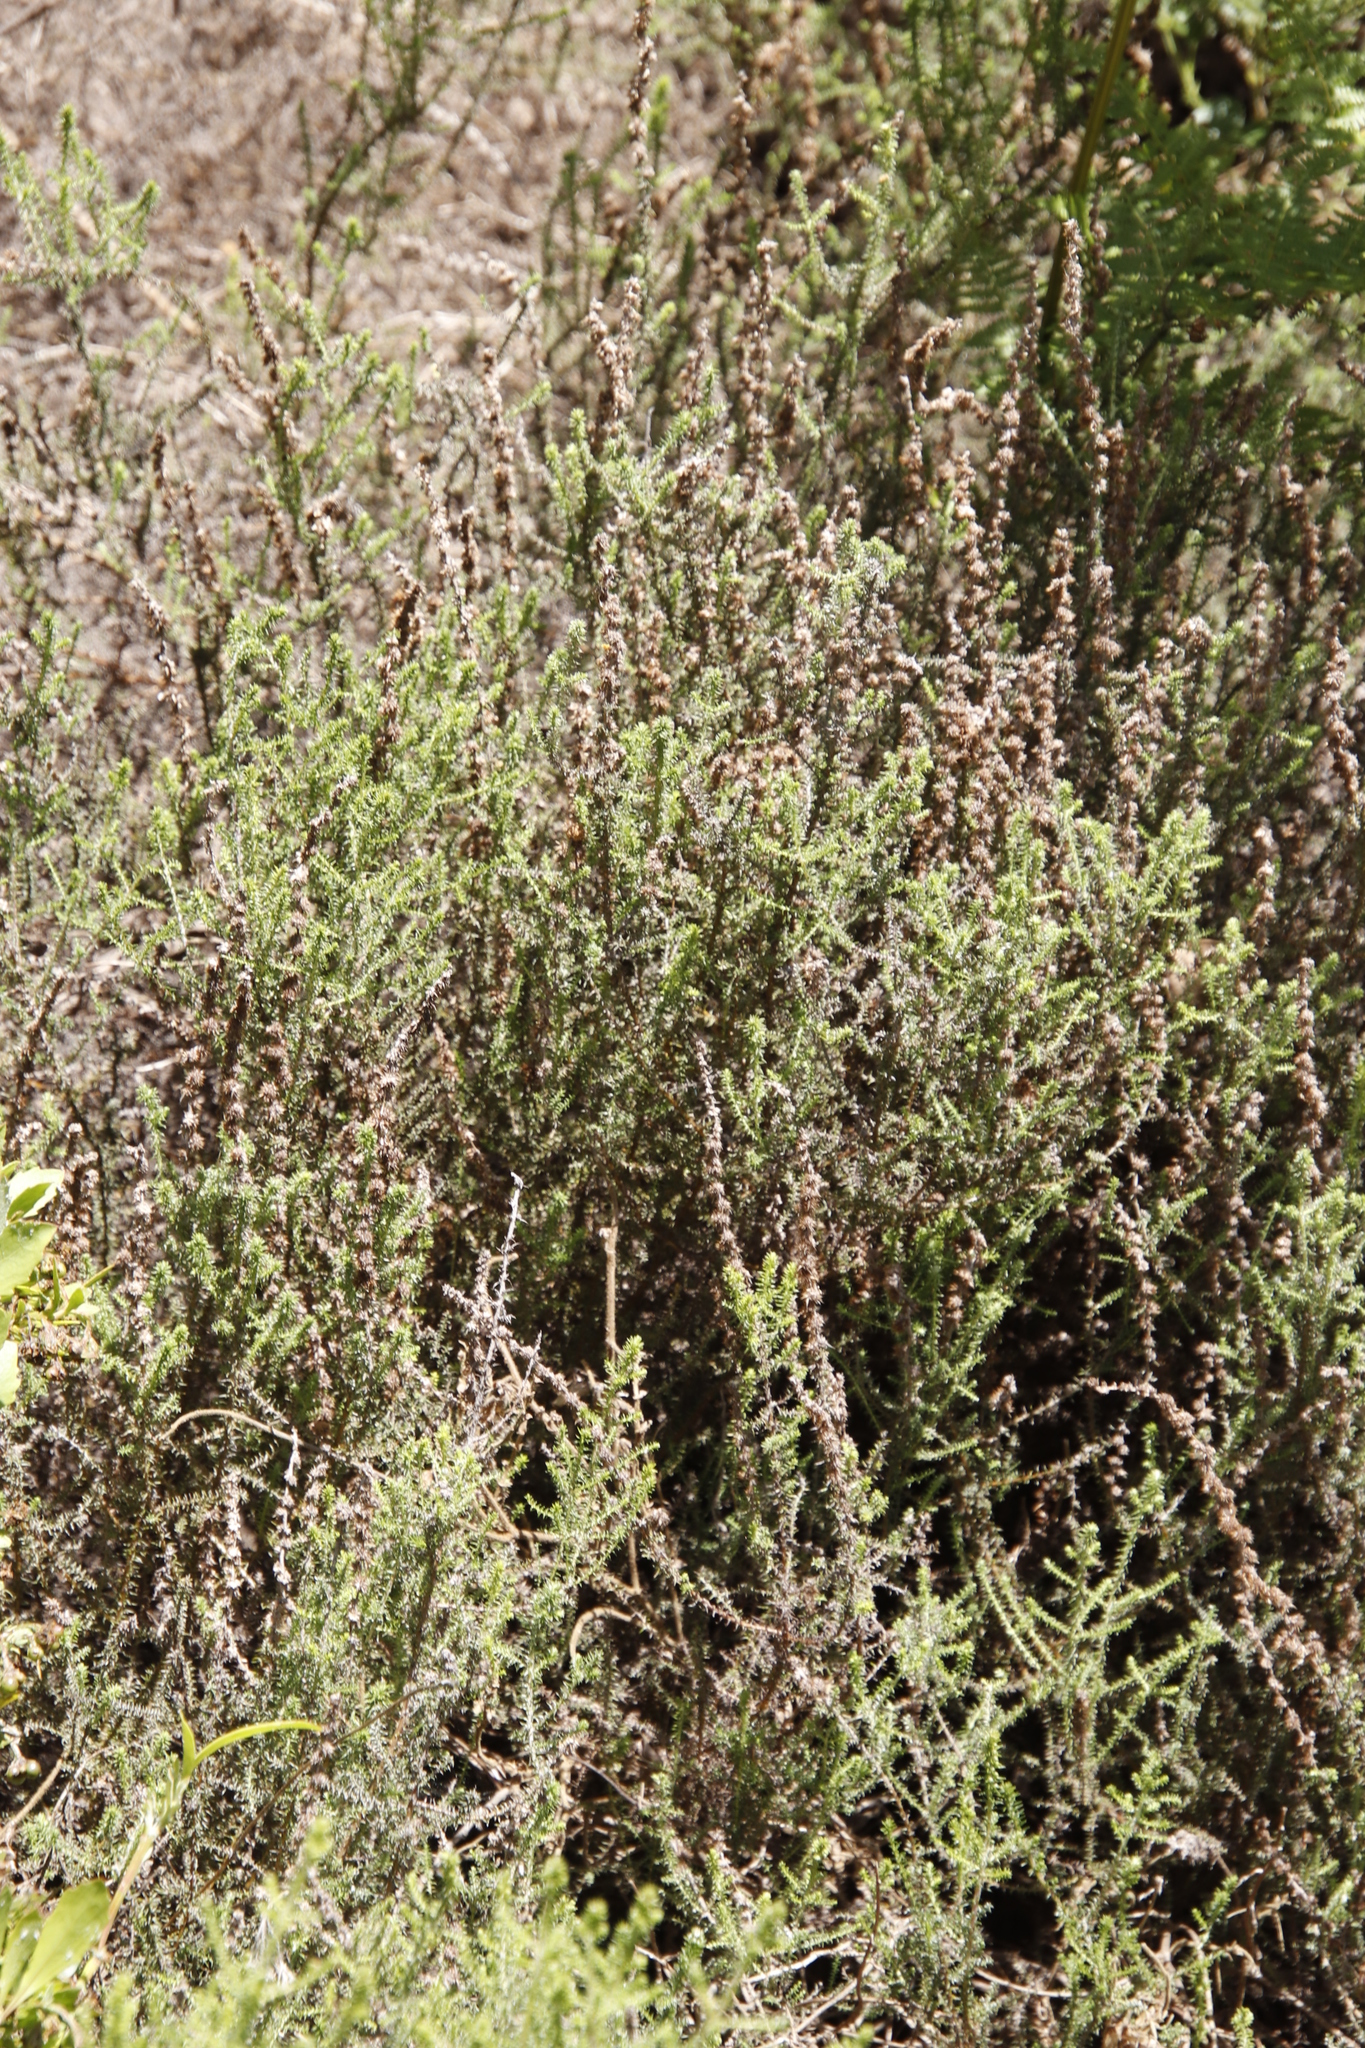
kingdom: Plantae
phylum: Tracheophyta
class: Magnoliopsida
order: Asterales
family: Asteraceae
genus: Seriphium
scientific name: Seriphium cinereum
